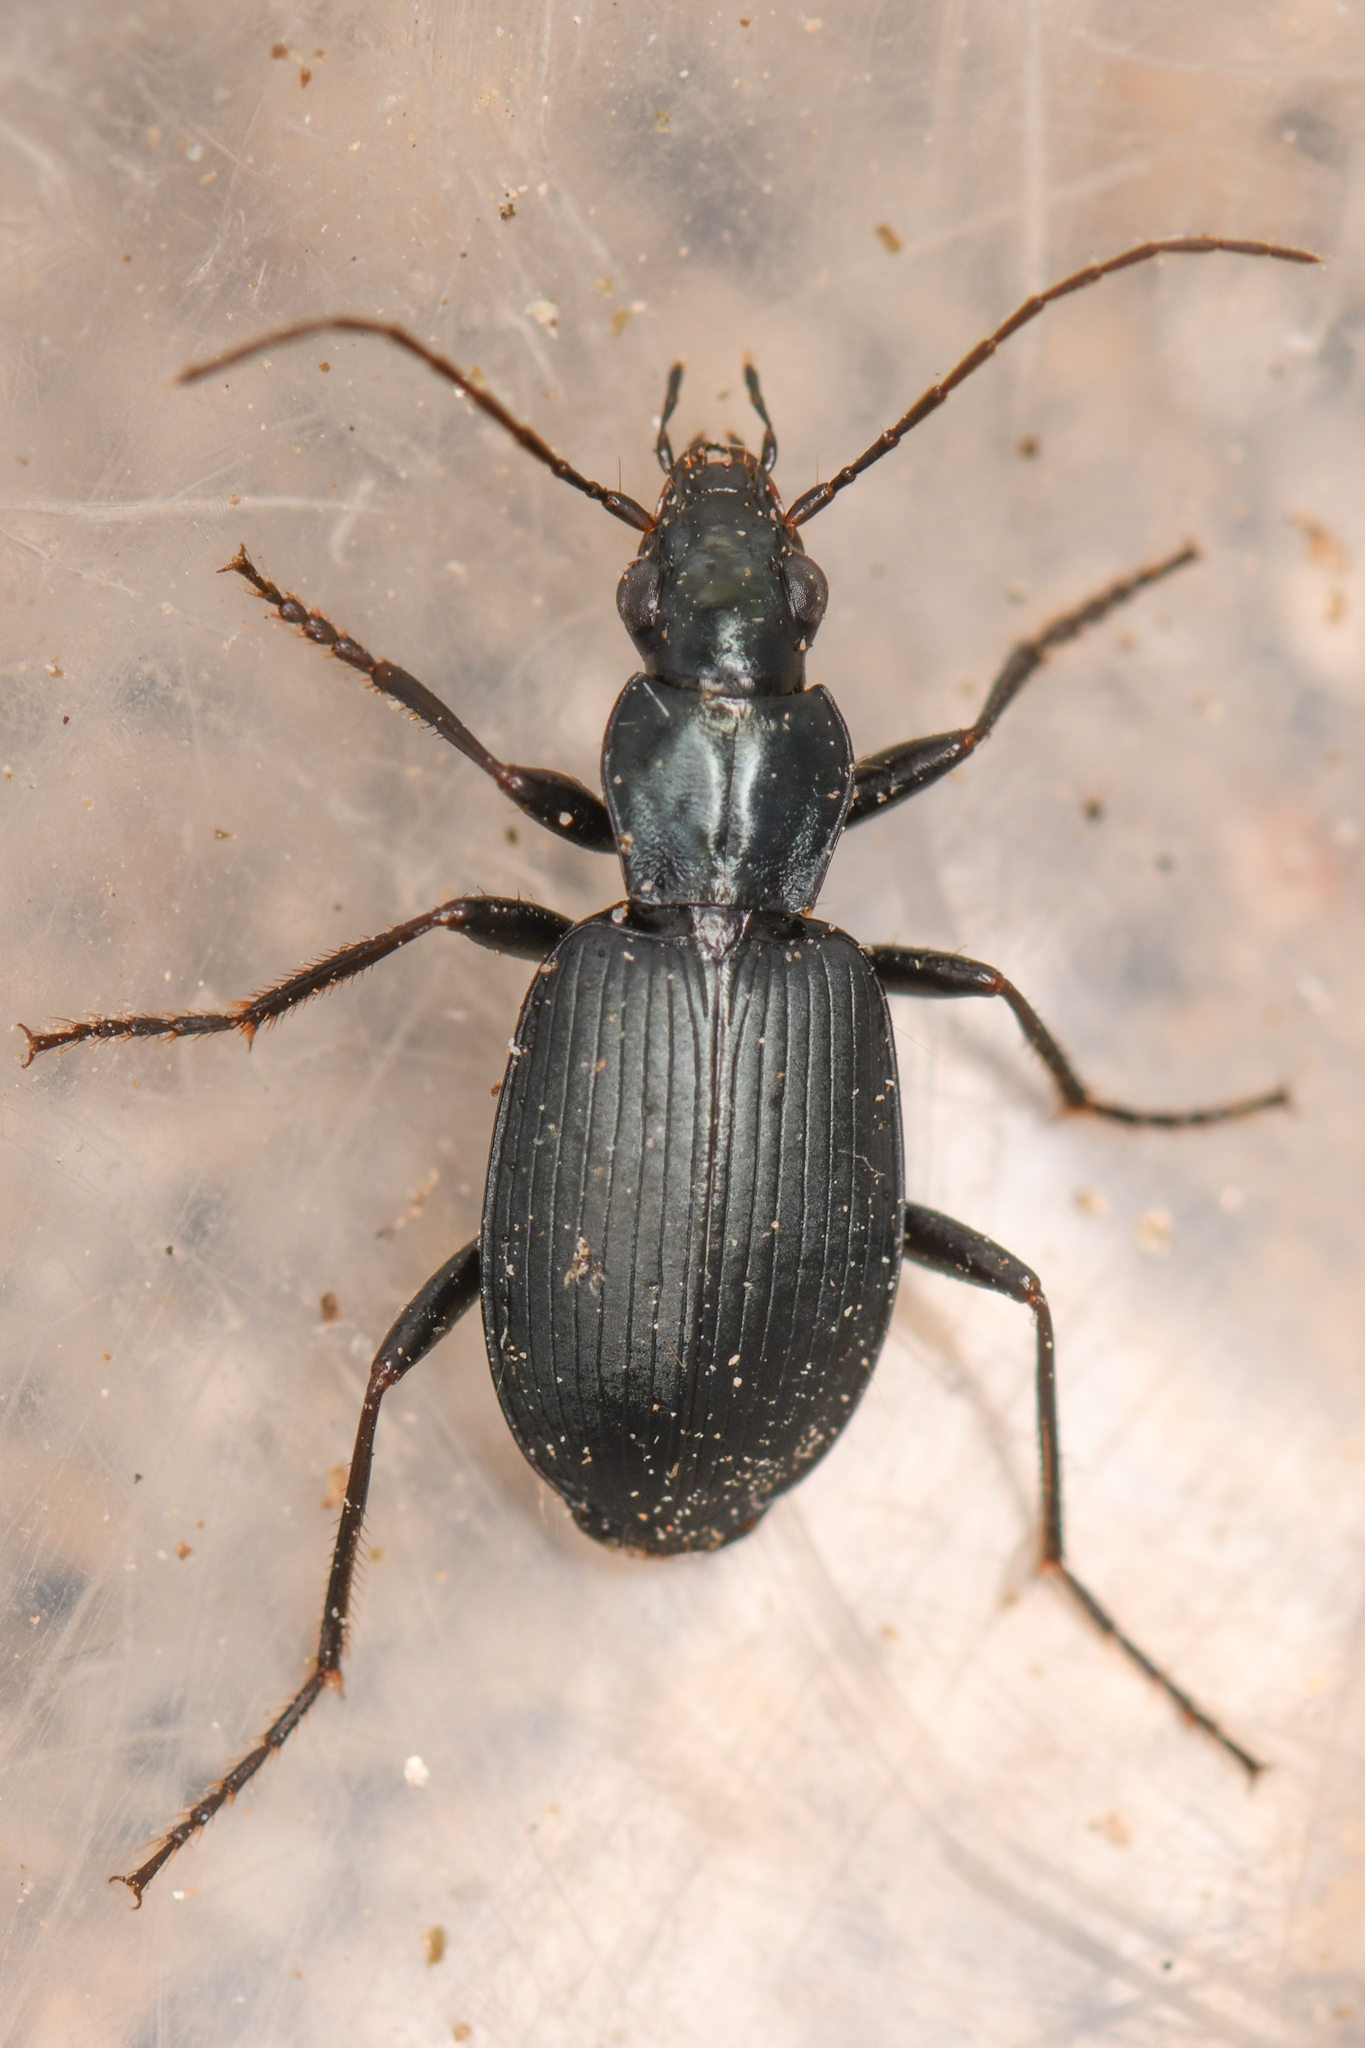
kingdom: Animalia
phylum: Arthropoda
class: Insecta
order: Coleoptera
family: Carabidae
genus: Anchomenus
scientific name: Anchomenus funebris
